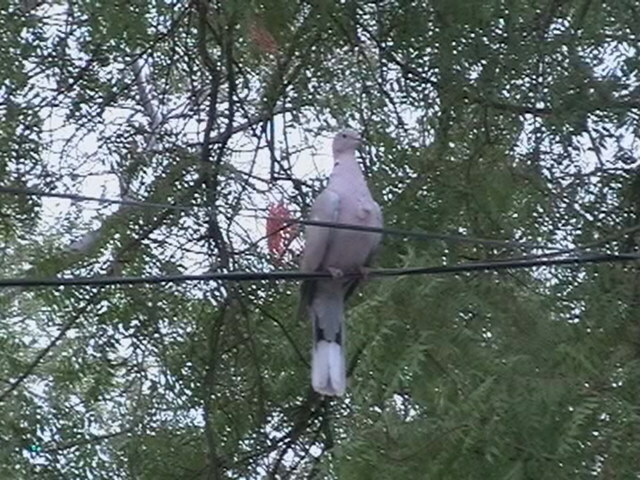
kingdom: Animalia
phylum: Chordata
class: Aves
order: Columbiformes
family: Columbidae
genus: Streptopelia
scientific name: Streptopelia decaocto
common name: Eurasian collared dove
